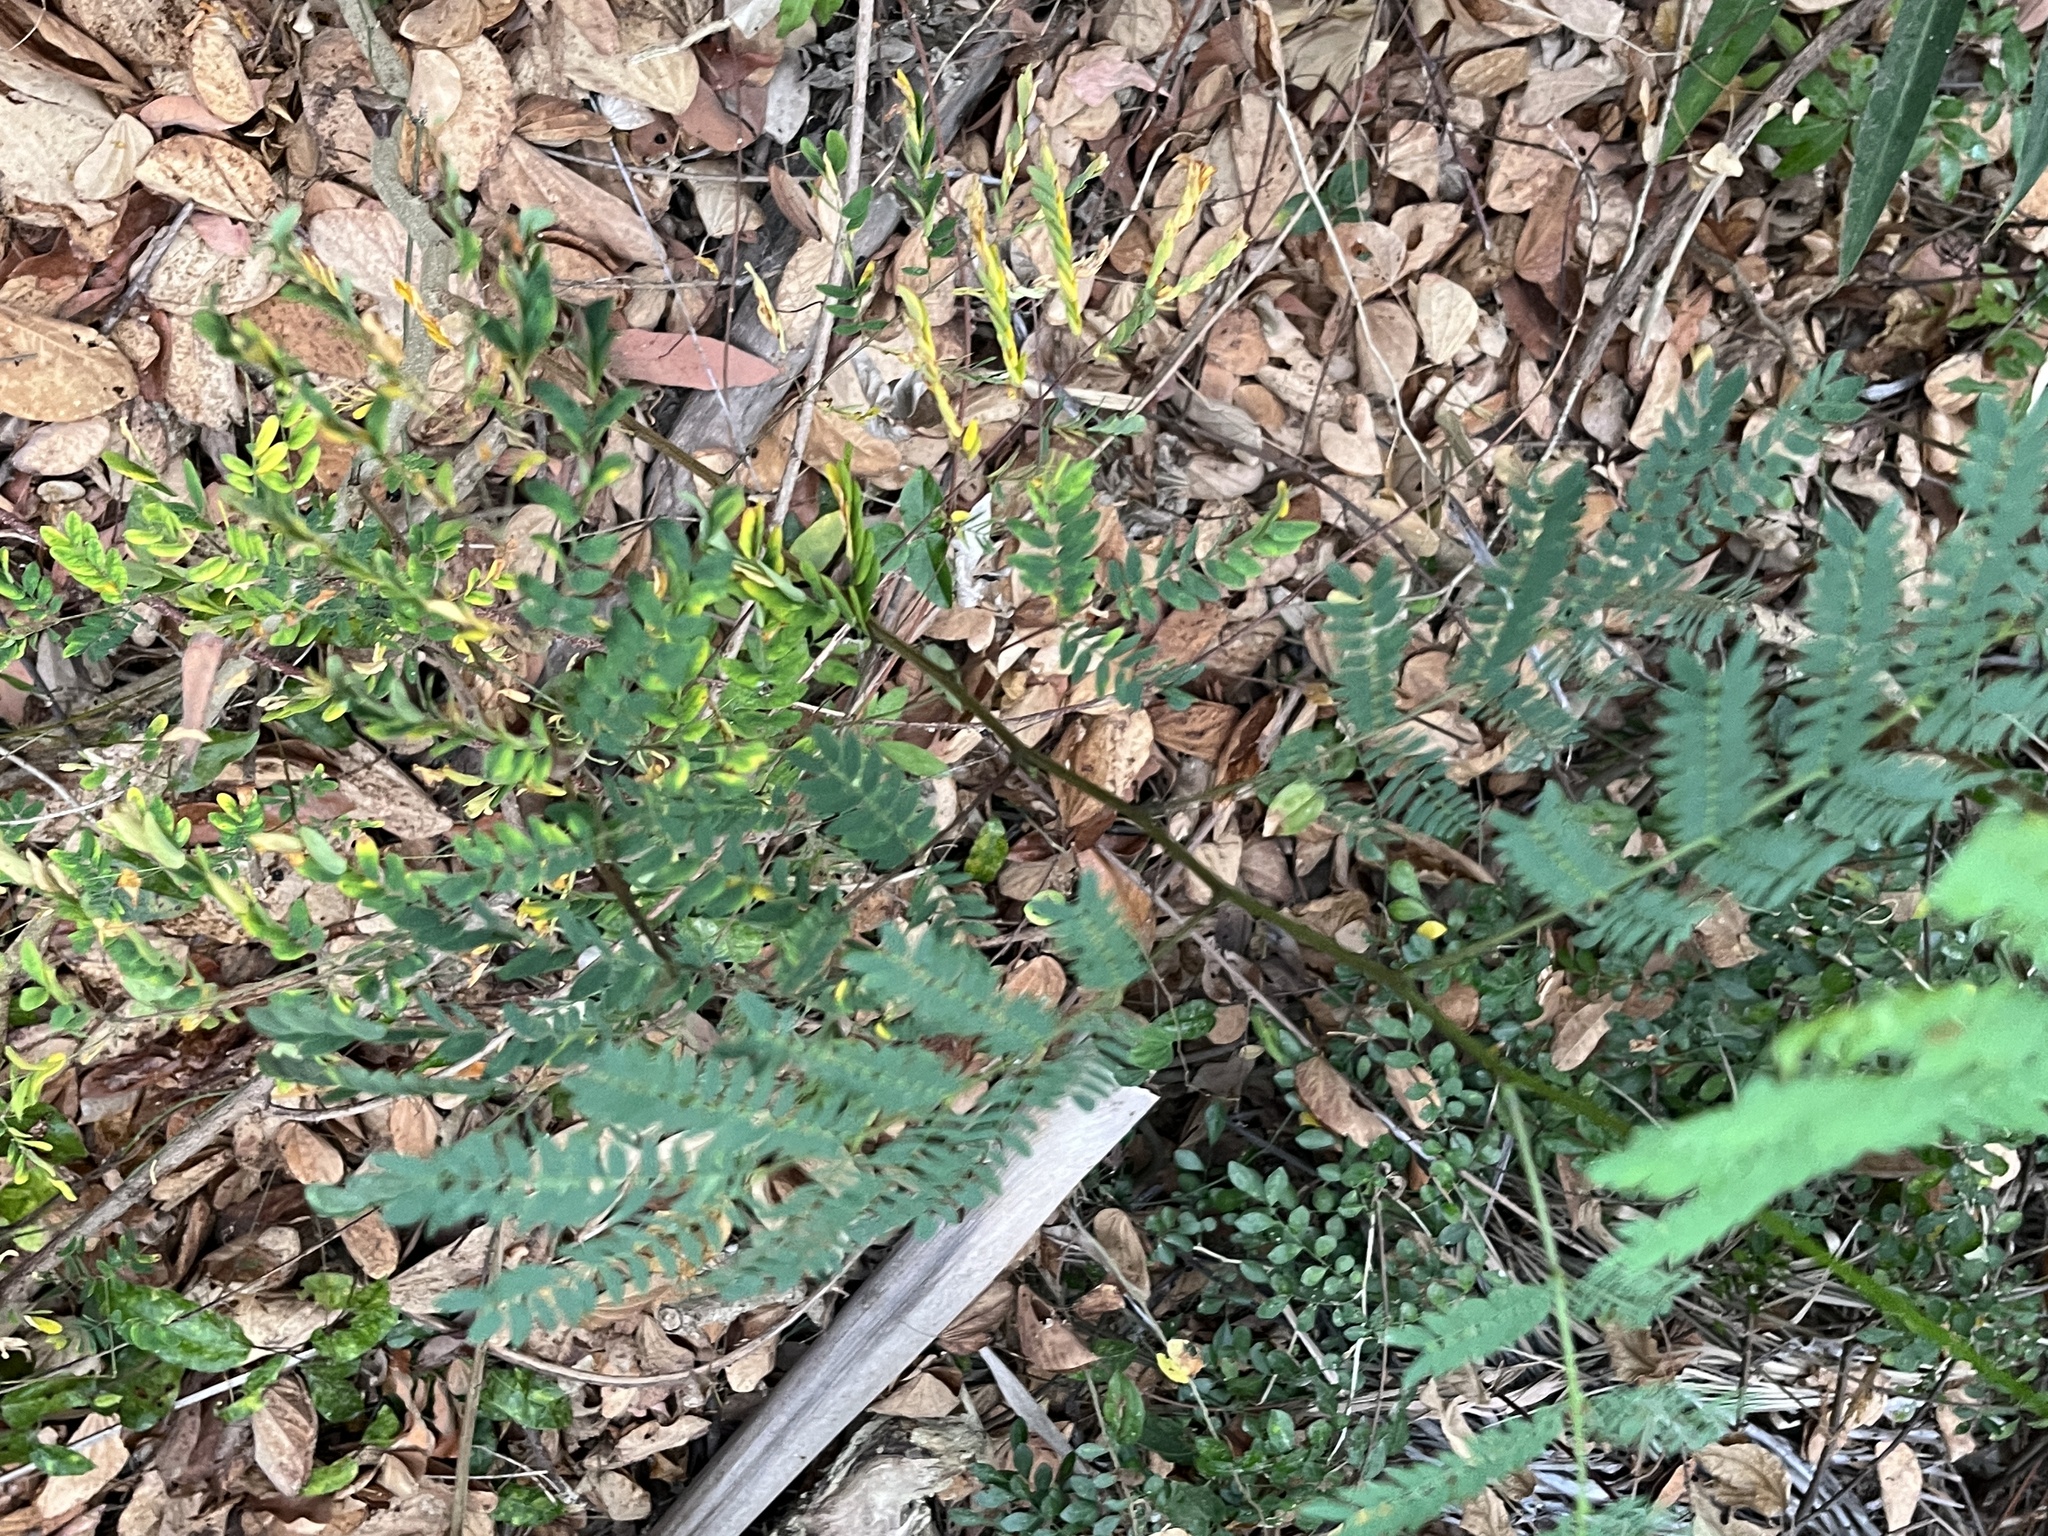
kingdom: Plantae
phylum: Tracheophyta
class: Magnoliopsida
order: Fabales
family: Fabaceae
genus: Leucaena
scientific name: Leucaena leucocephala
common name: White leadtree
